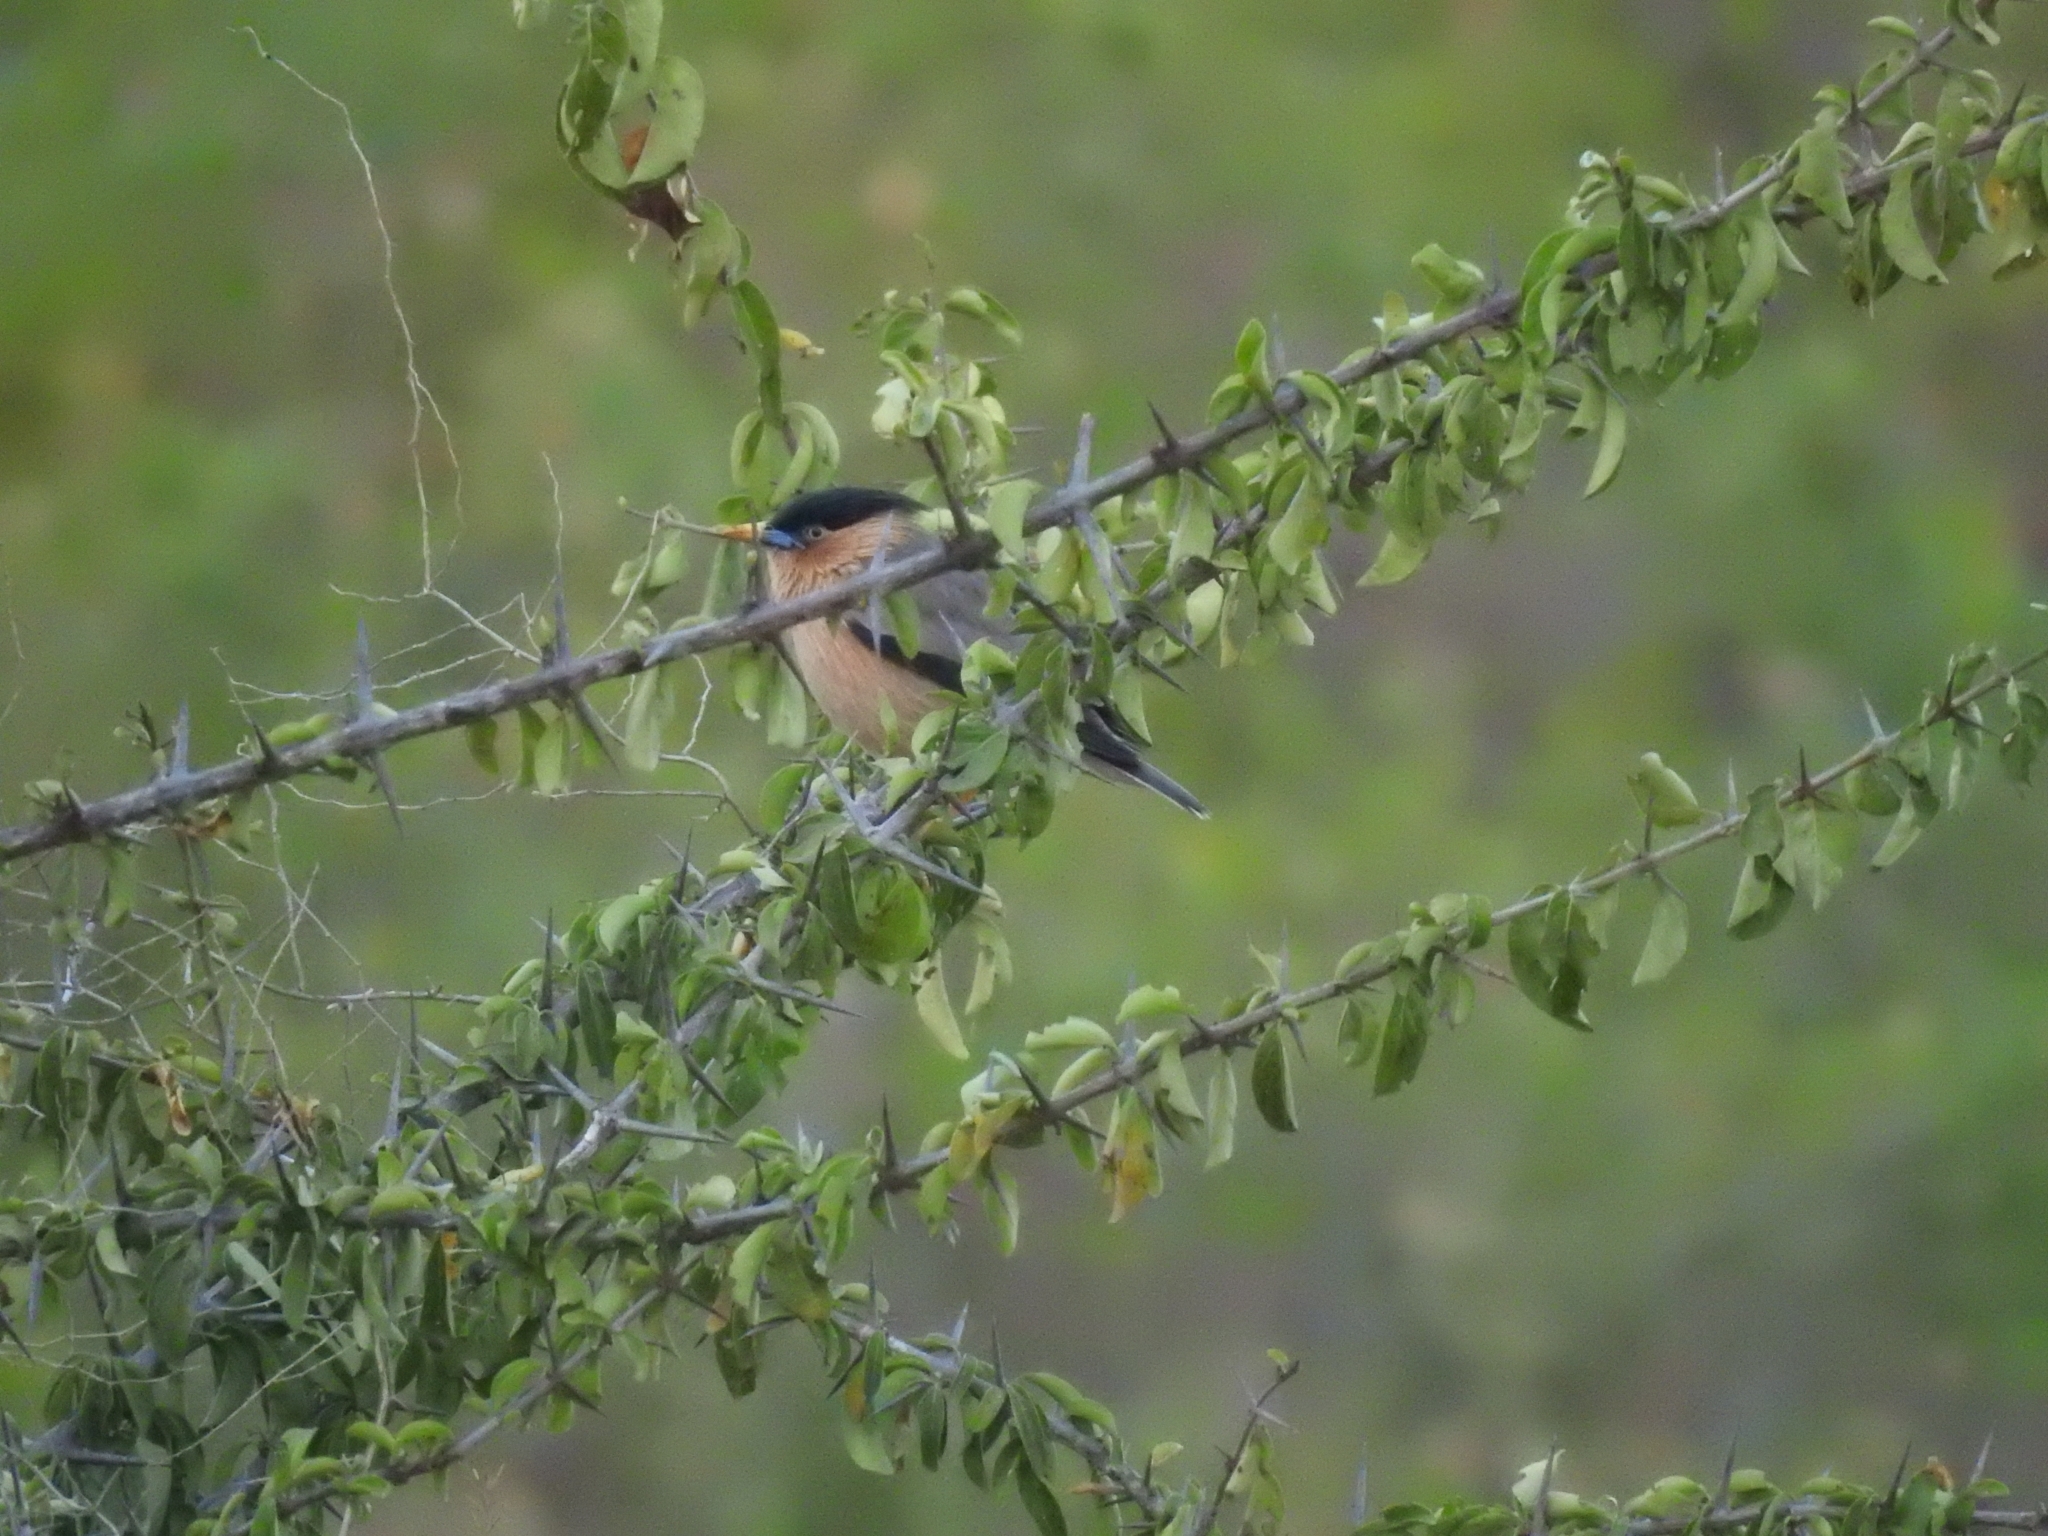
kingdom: Animalia
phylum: Chordata
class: Aves
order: Passeriformes
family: Sturnidae
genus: Sturnia
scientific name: Sturnia pagodarum
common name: Brahminy starling
